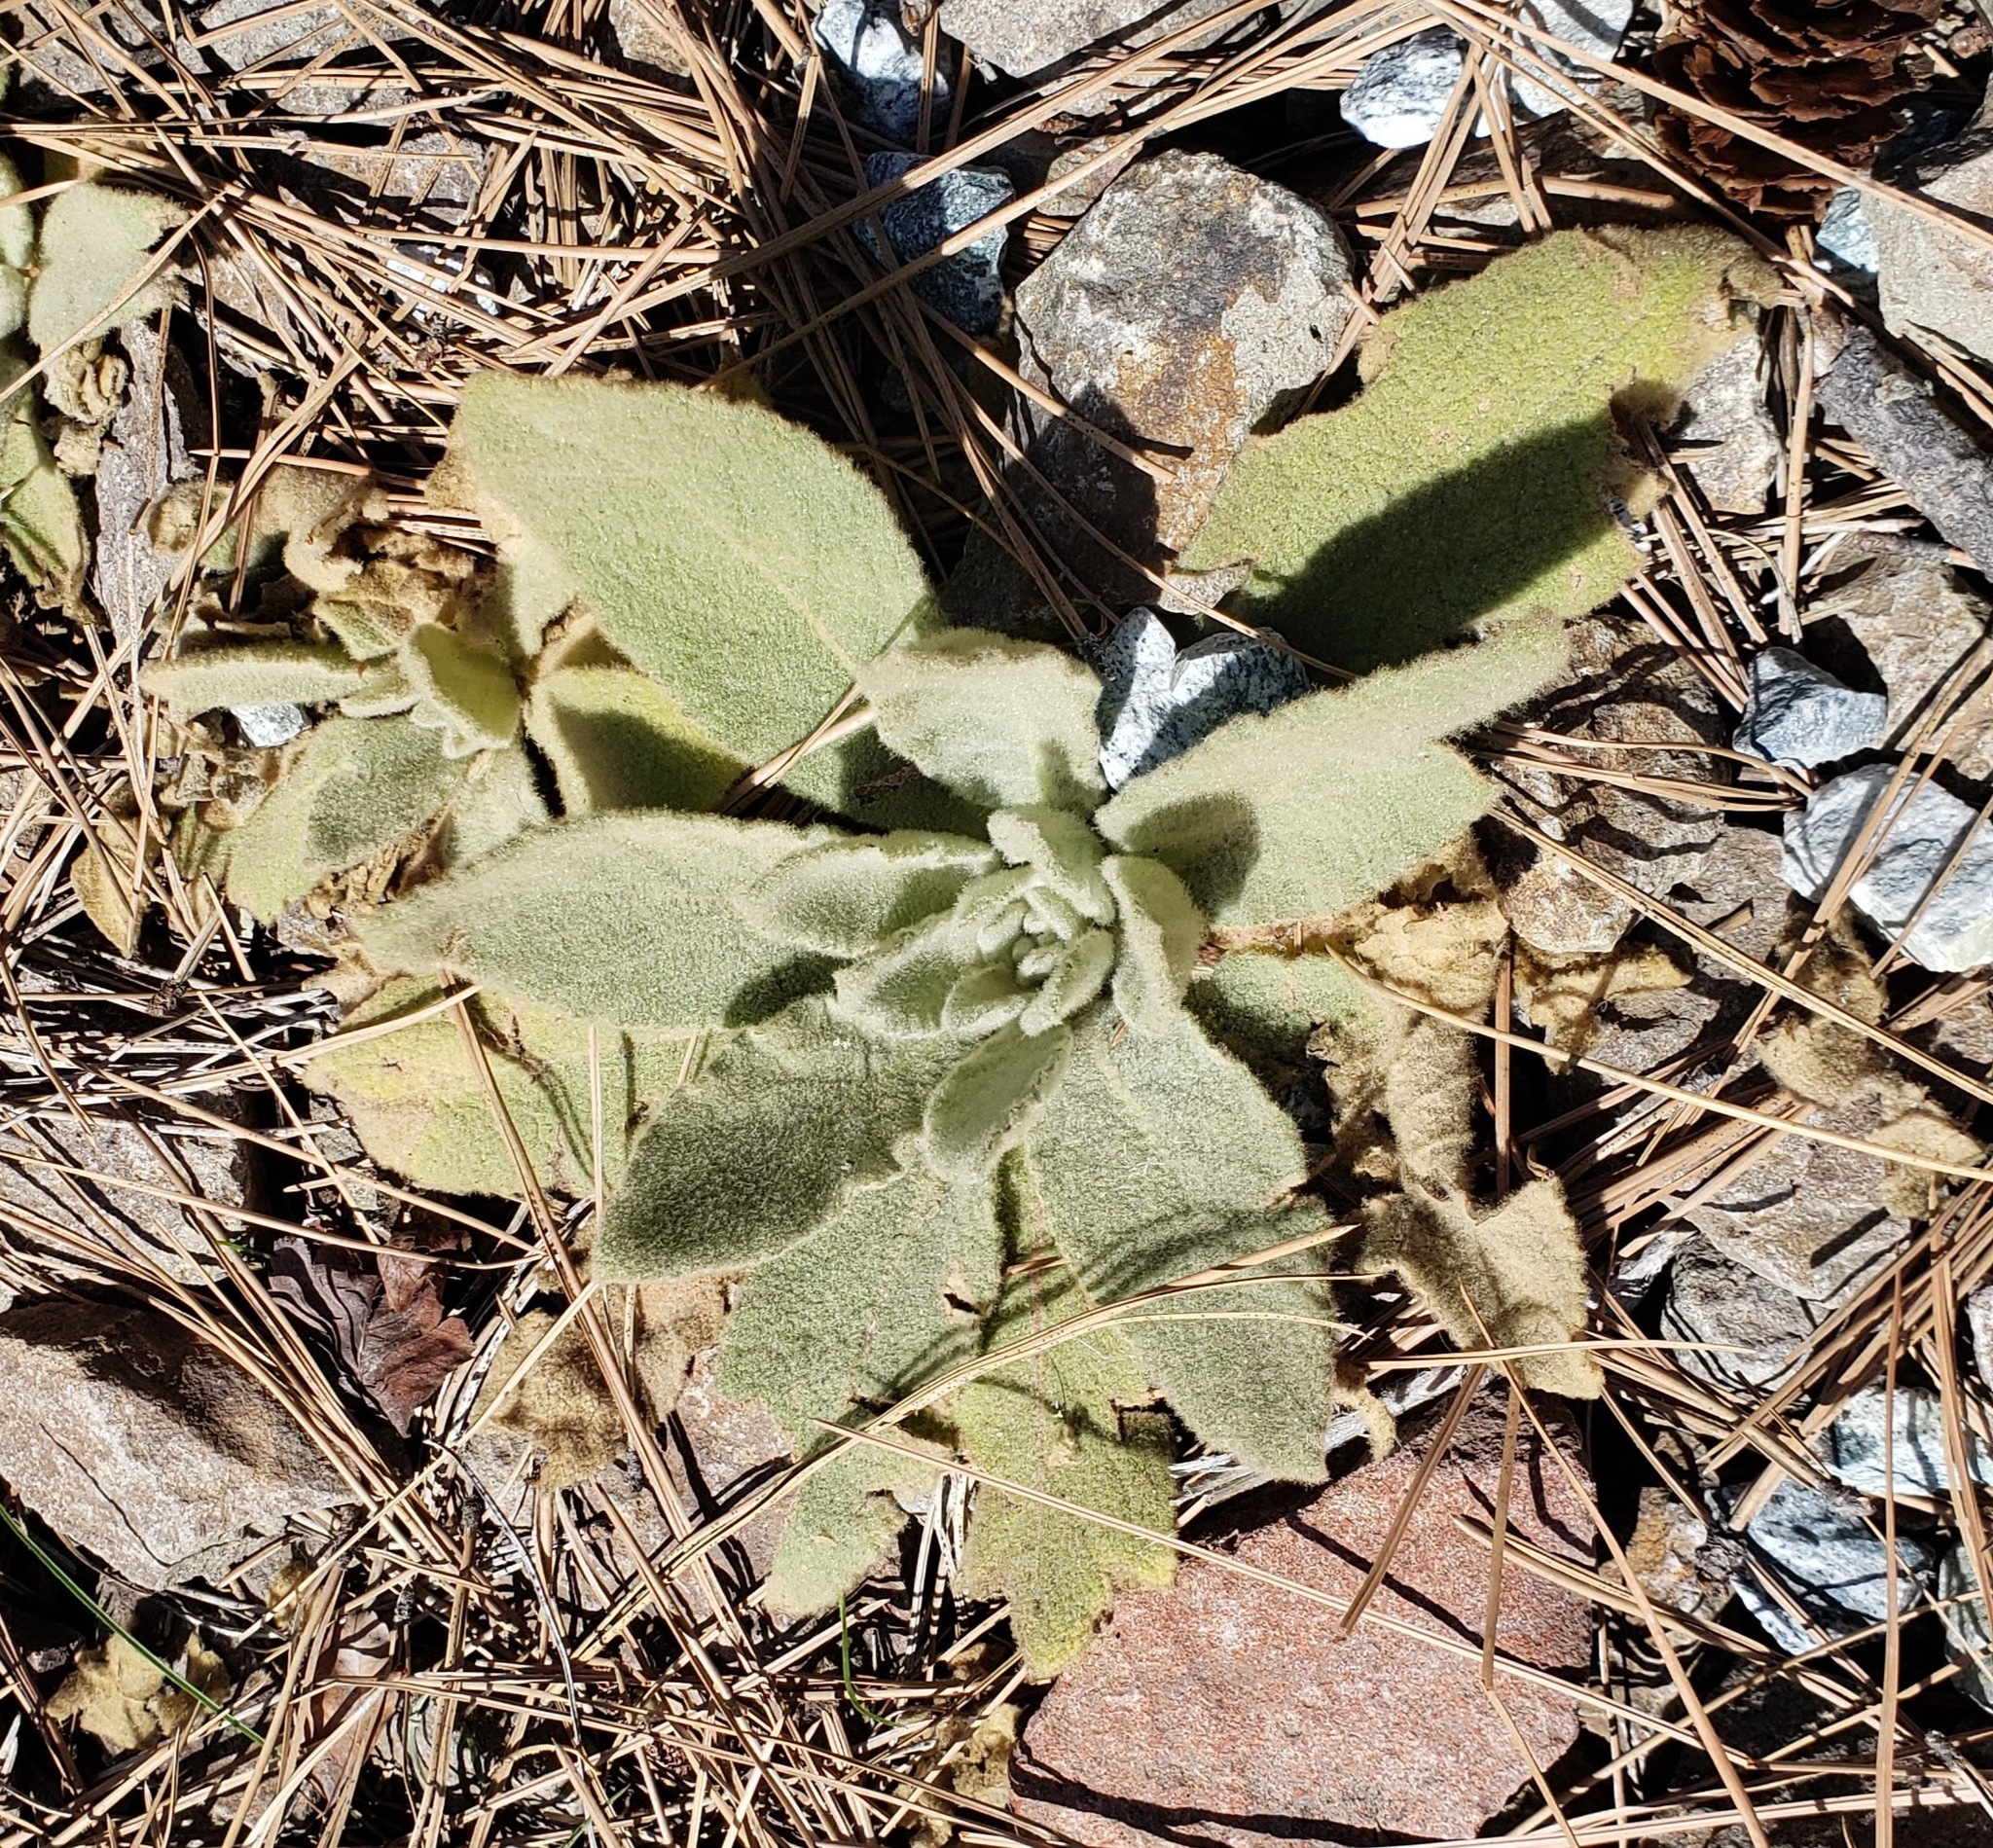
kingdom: Plantae
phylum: Tracheophyta
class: Magnoliopsida
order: Lamiales
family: Scrophulariaceae
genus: Verbascum
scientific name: Verbascum thapsus
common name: Common mullein
